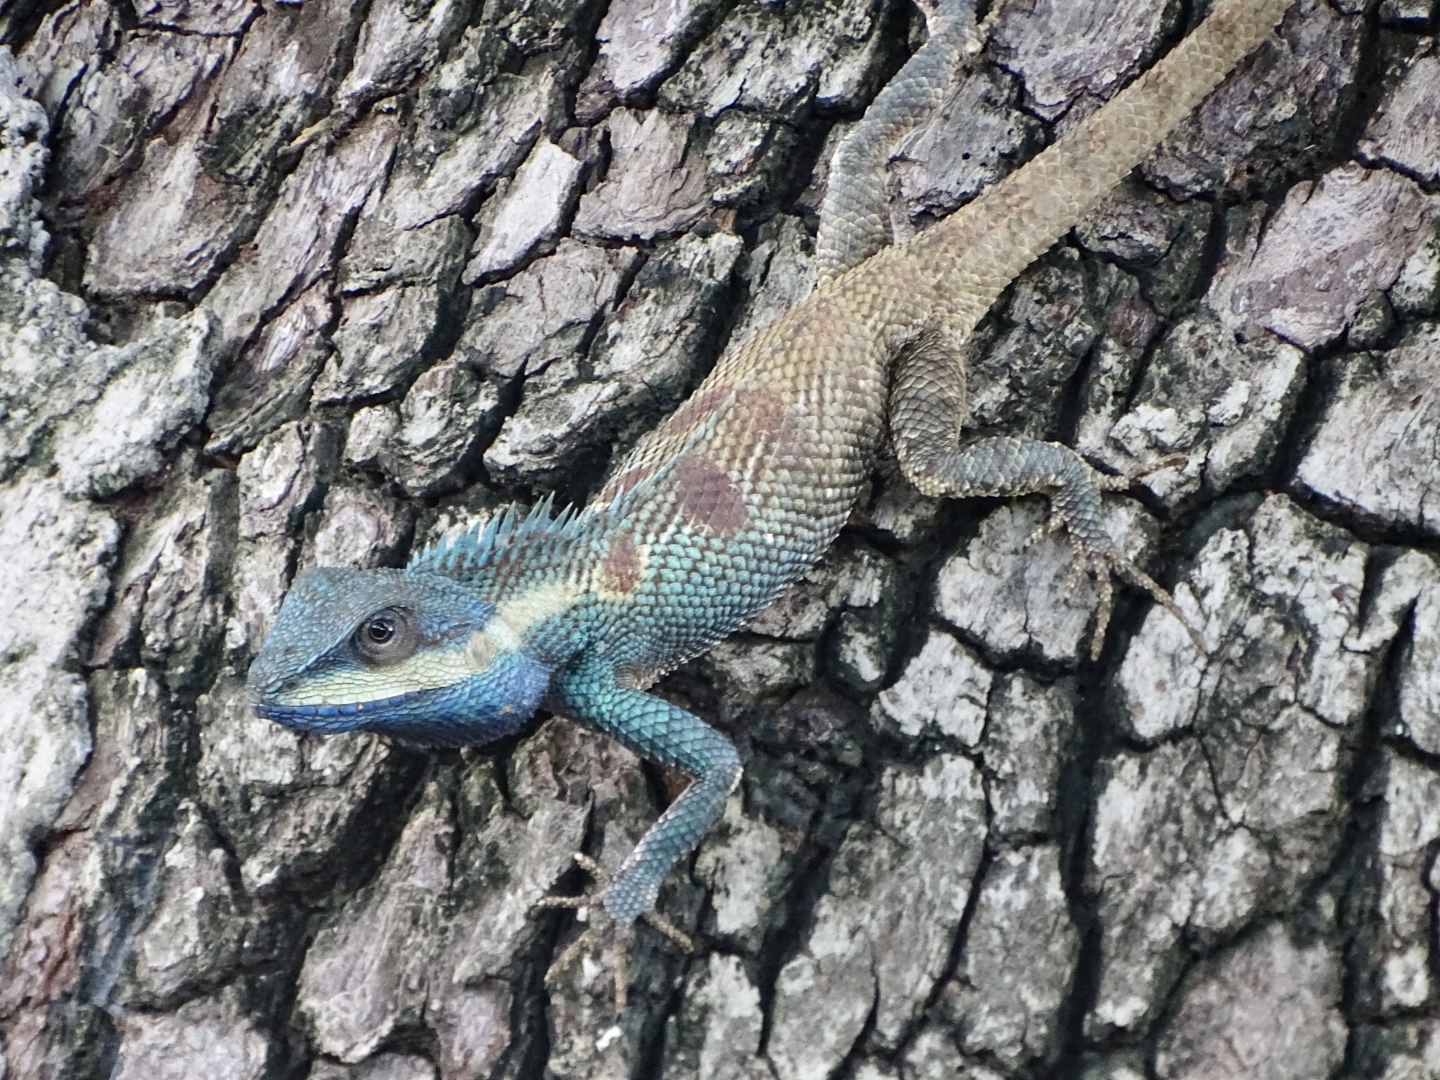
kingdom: Animalia
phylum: Chordata
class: Squamata
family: Agamidae
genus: Calotes
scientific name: Calotes goetzi
